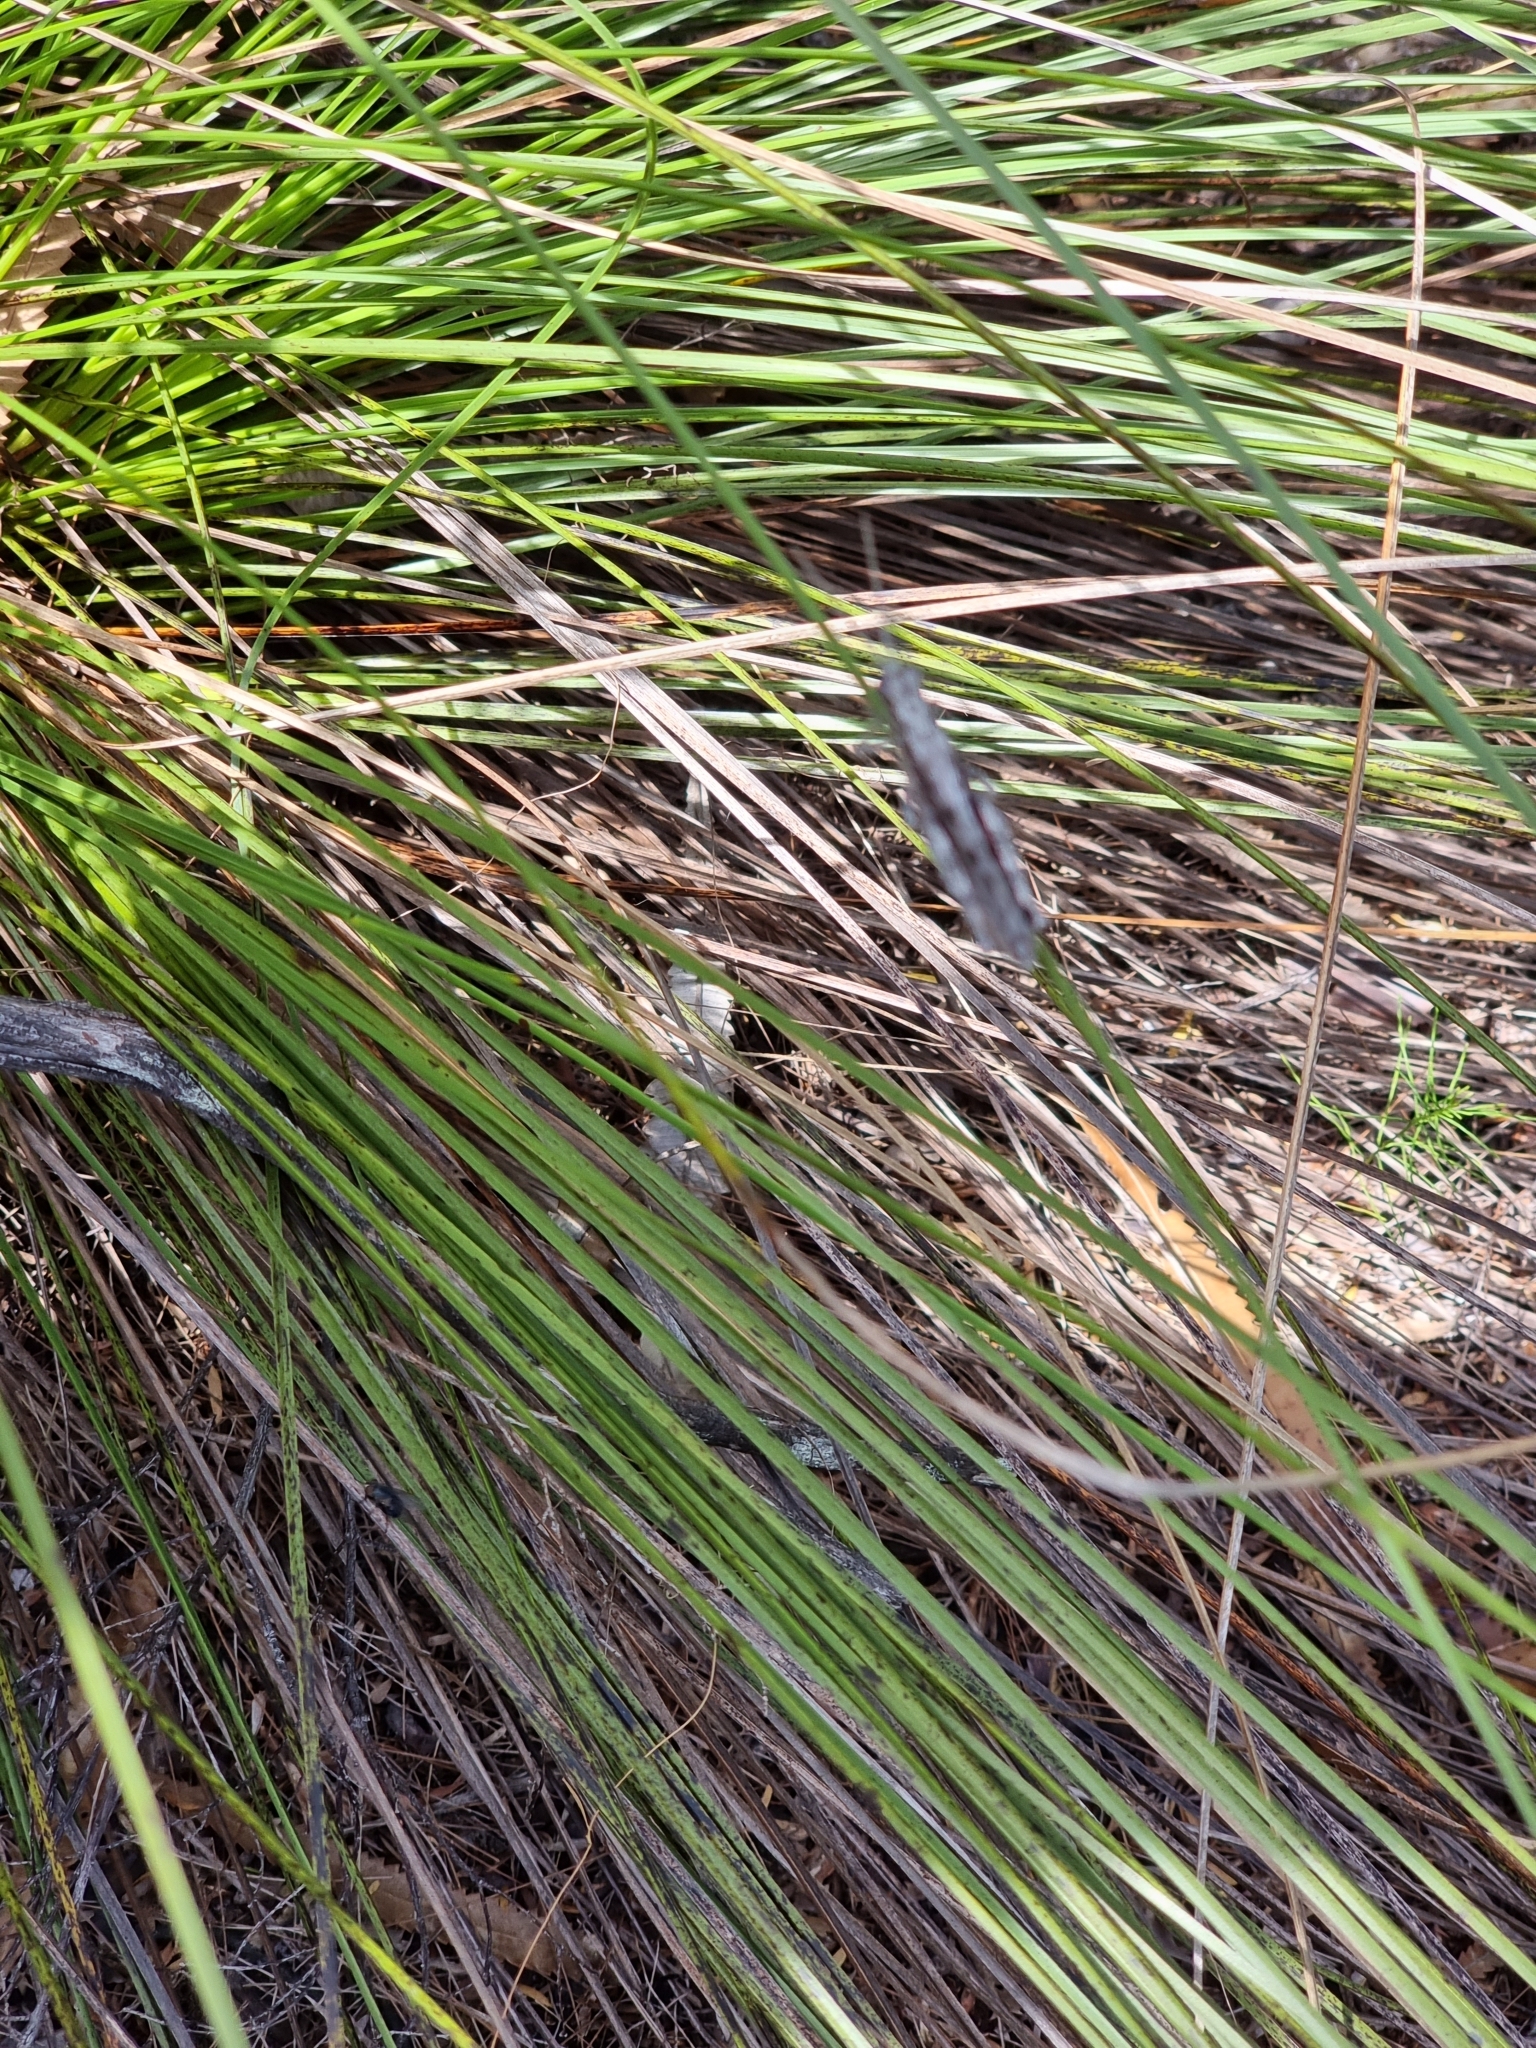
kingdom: Animalia
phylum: Arthropoda
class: Insecta
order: Orthoptera
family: Acrididae
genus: Adreppus
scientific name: Adreppus fallax
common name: Common adreppus
